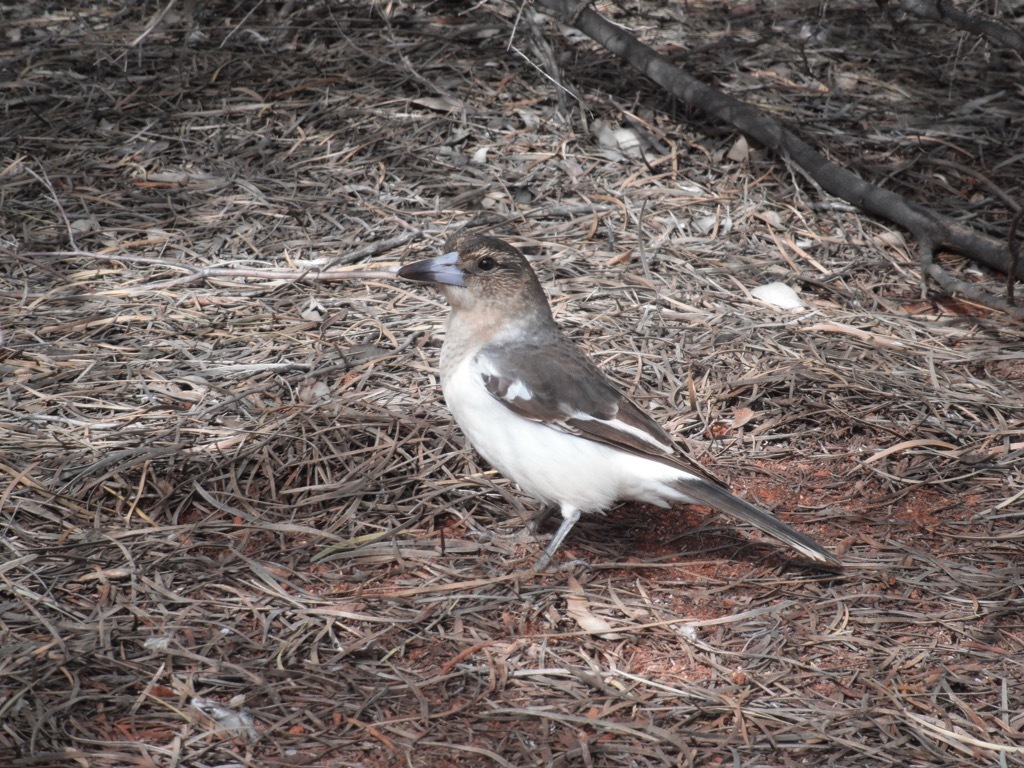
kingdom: Animalia
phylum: Chordata
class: Aves
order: Passeriformes
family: Cracticidae
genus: Cracticus
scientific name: Cracticus nigrogularis
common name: Pied butcherbird
